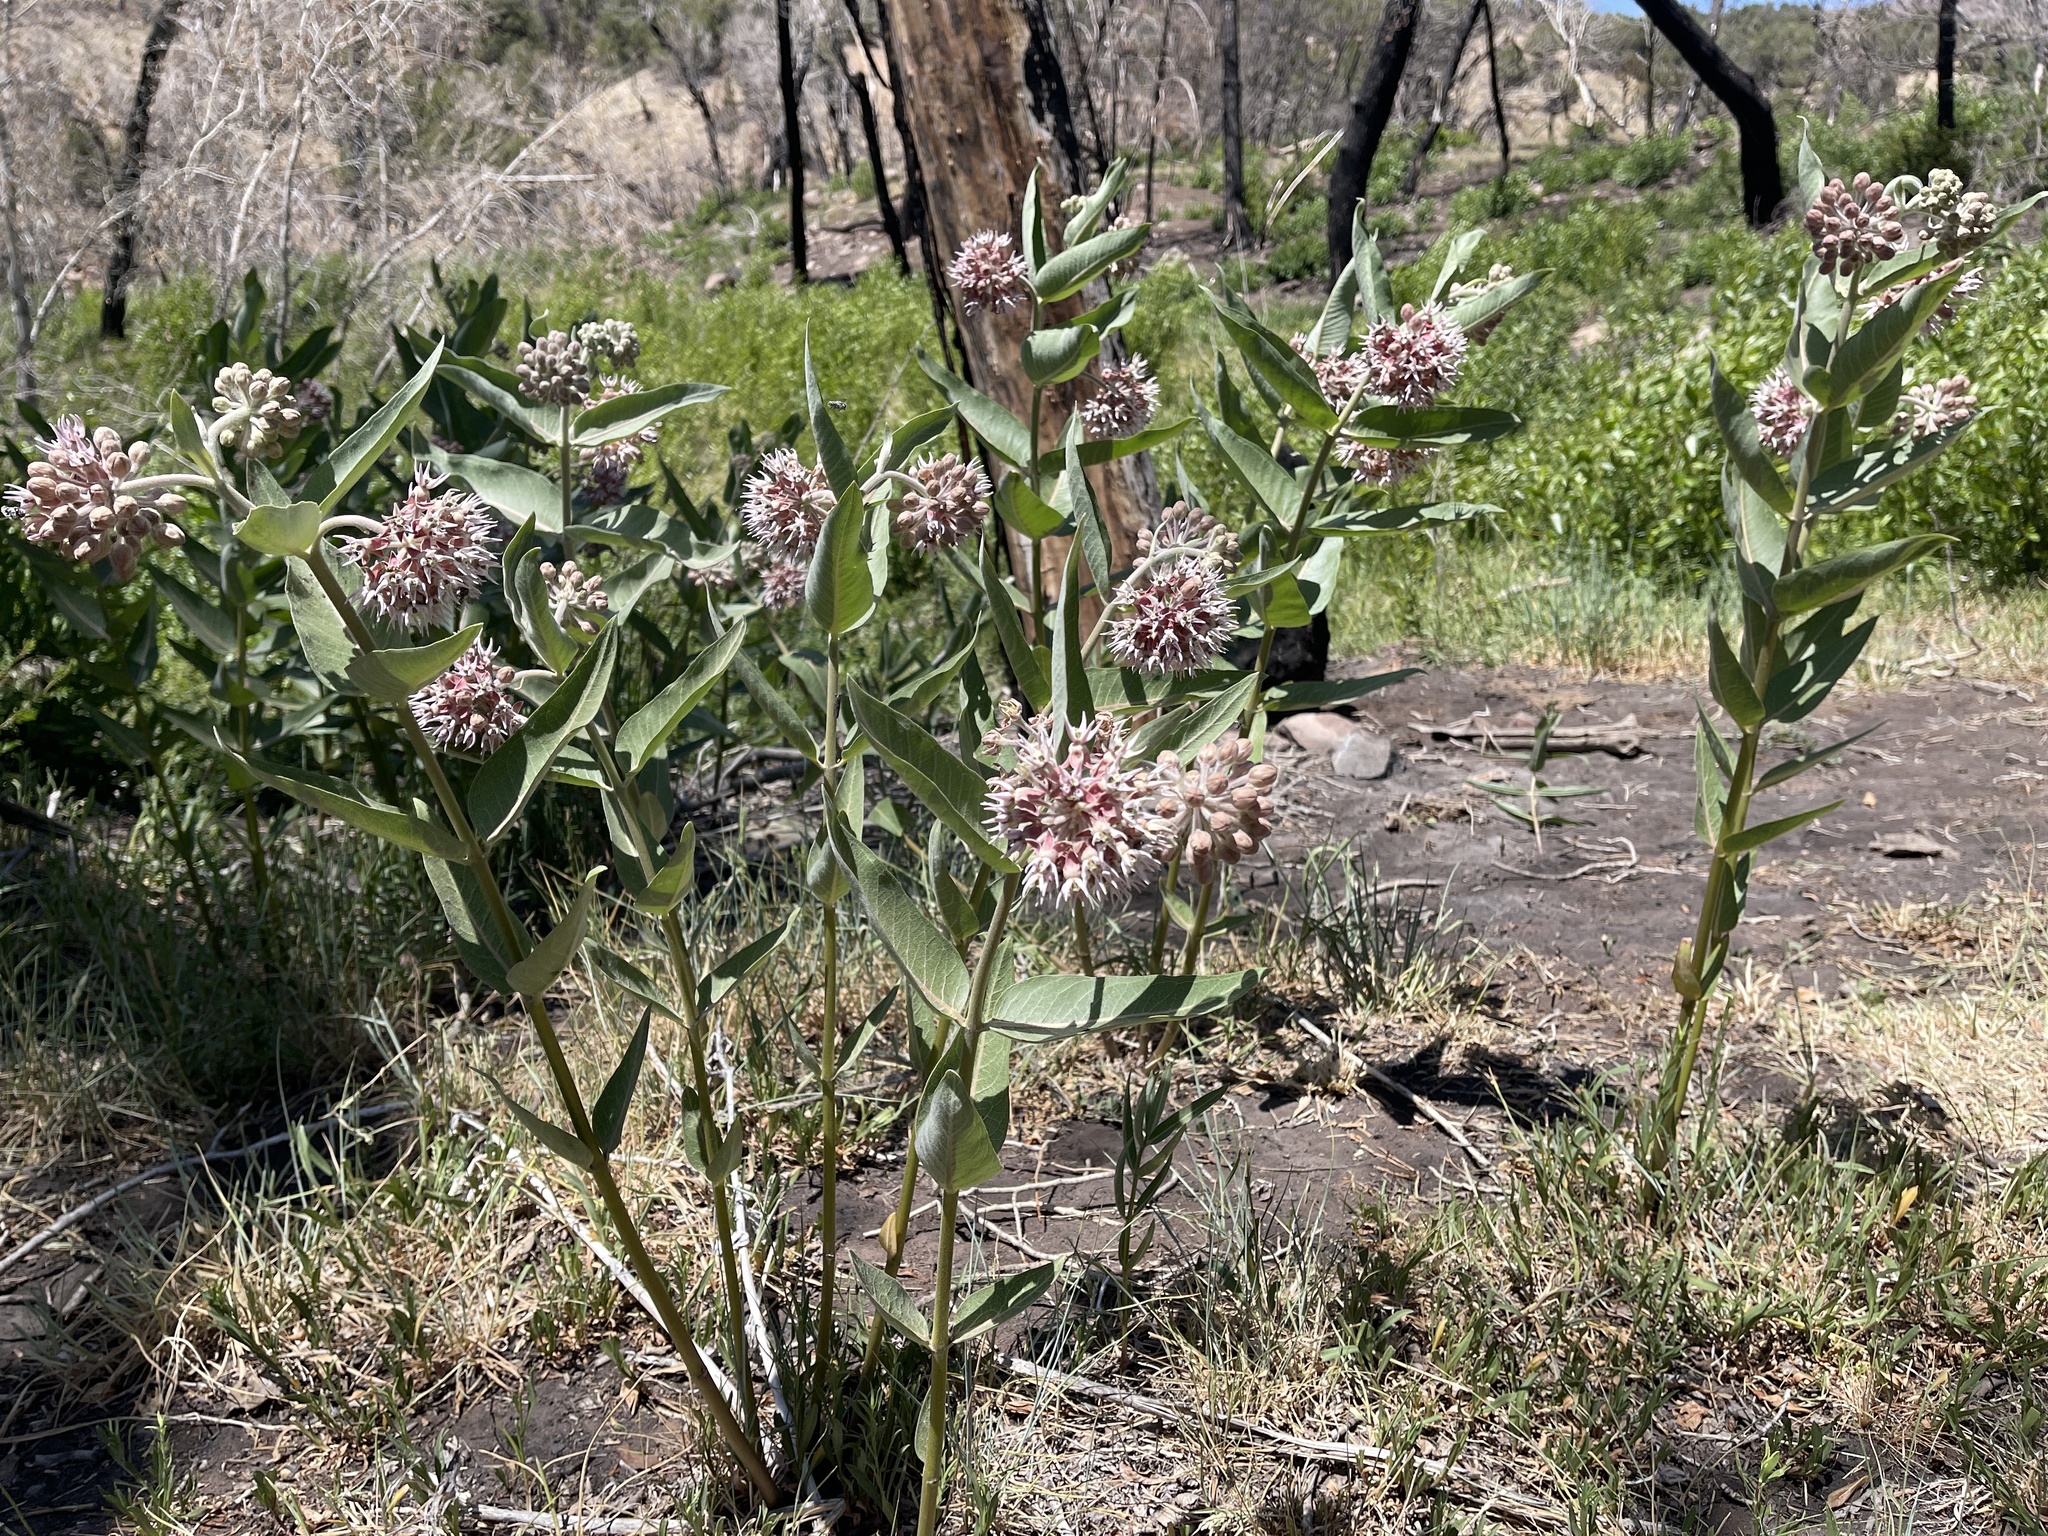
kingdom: Plantae
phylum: Tracheophyta
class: Magnoliopsida
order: Gentianales
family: Apocynaceae
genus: Asclepias
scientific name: Asclepias speciosa
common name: Showy milkweed
